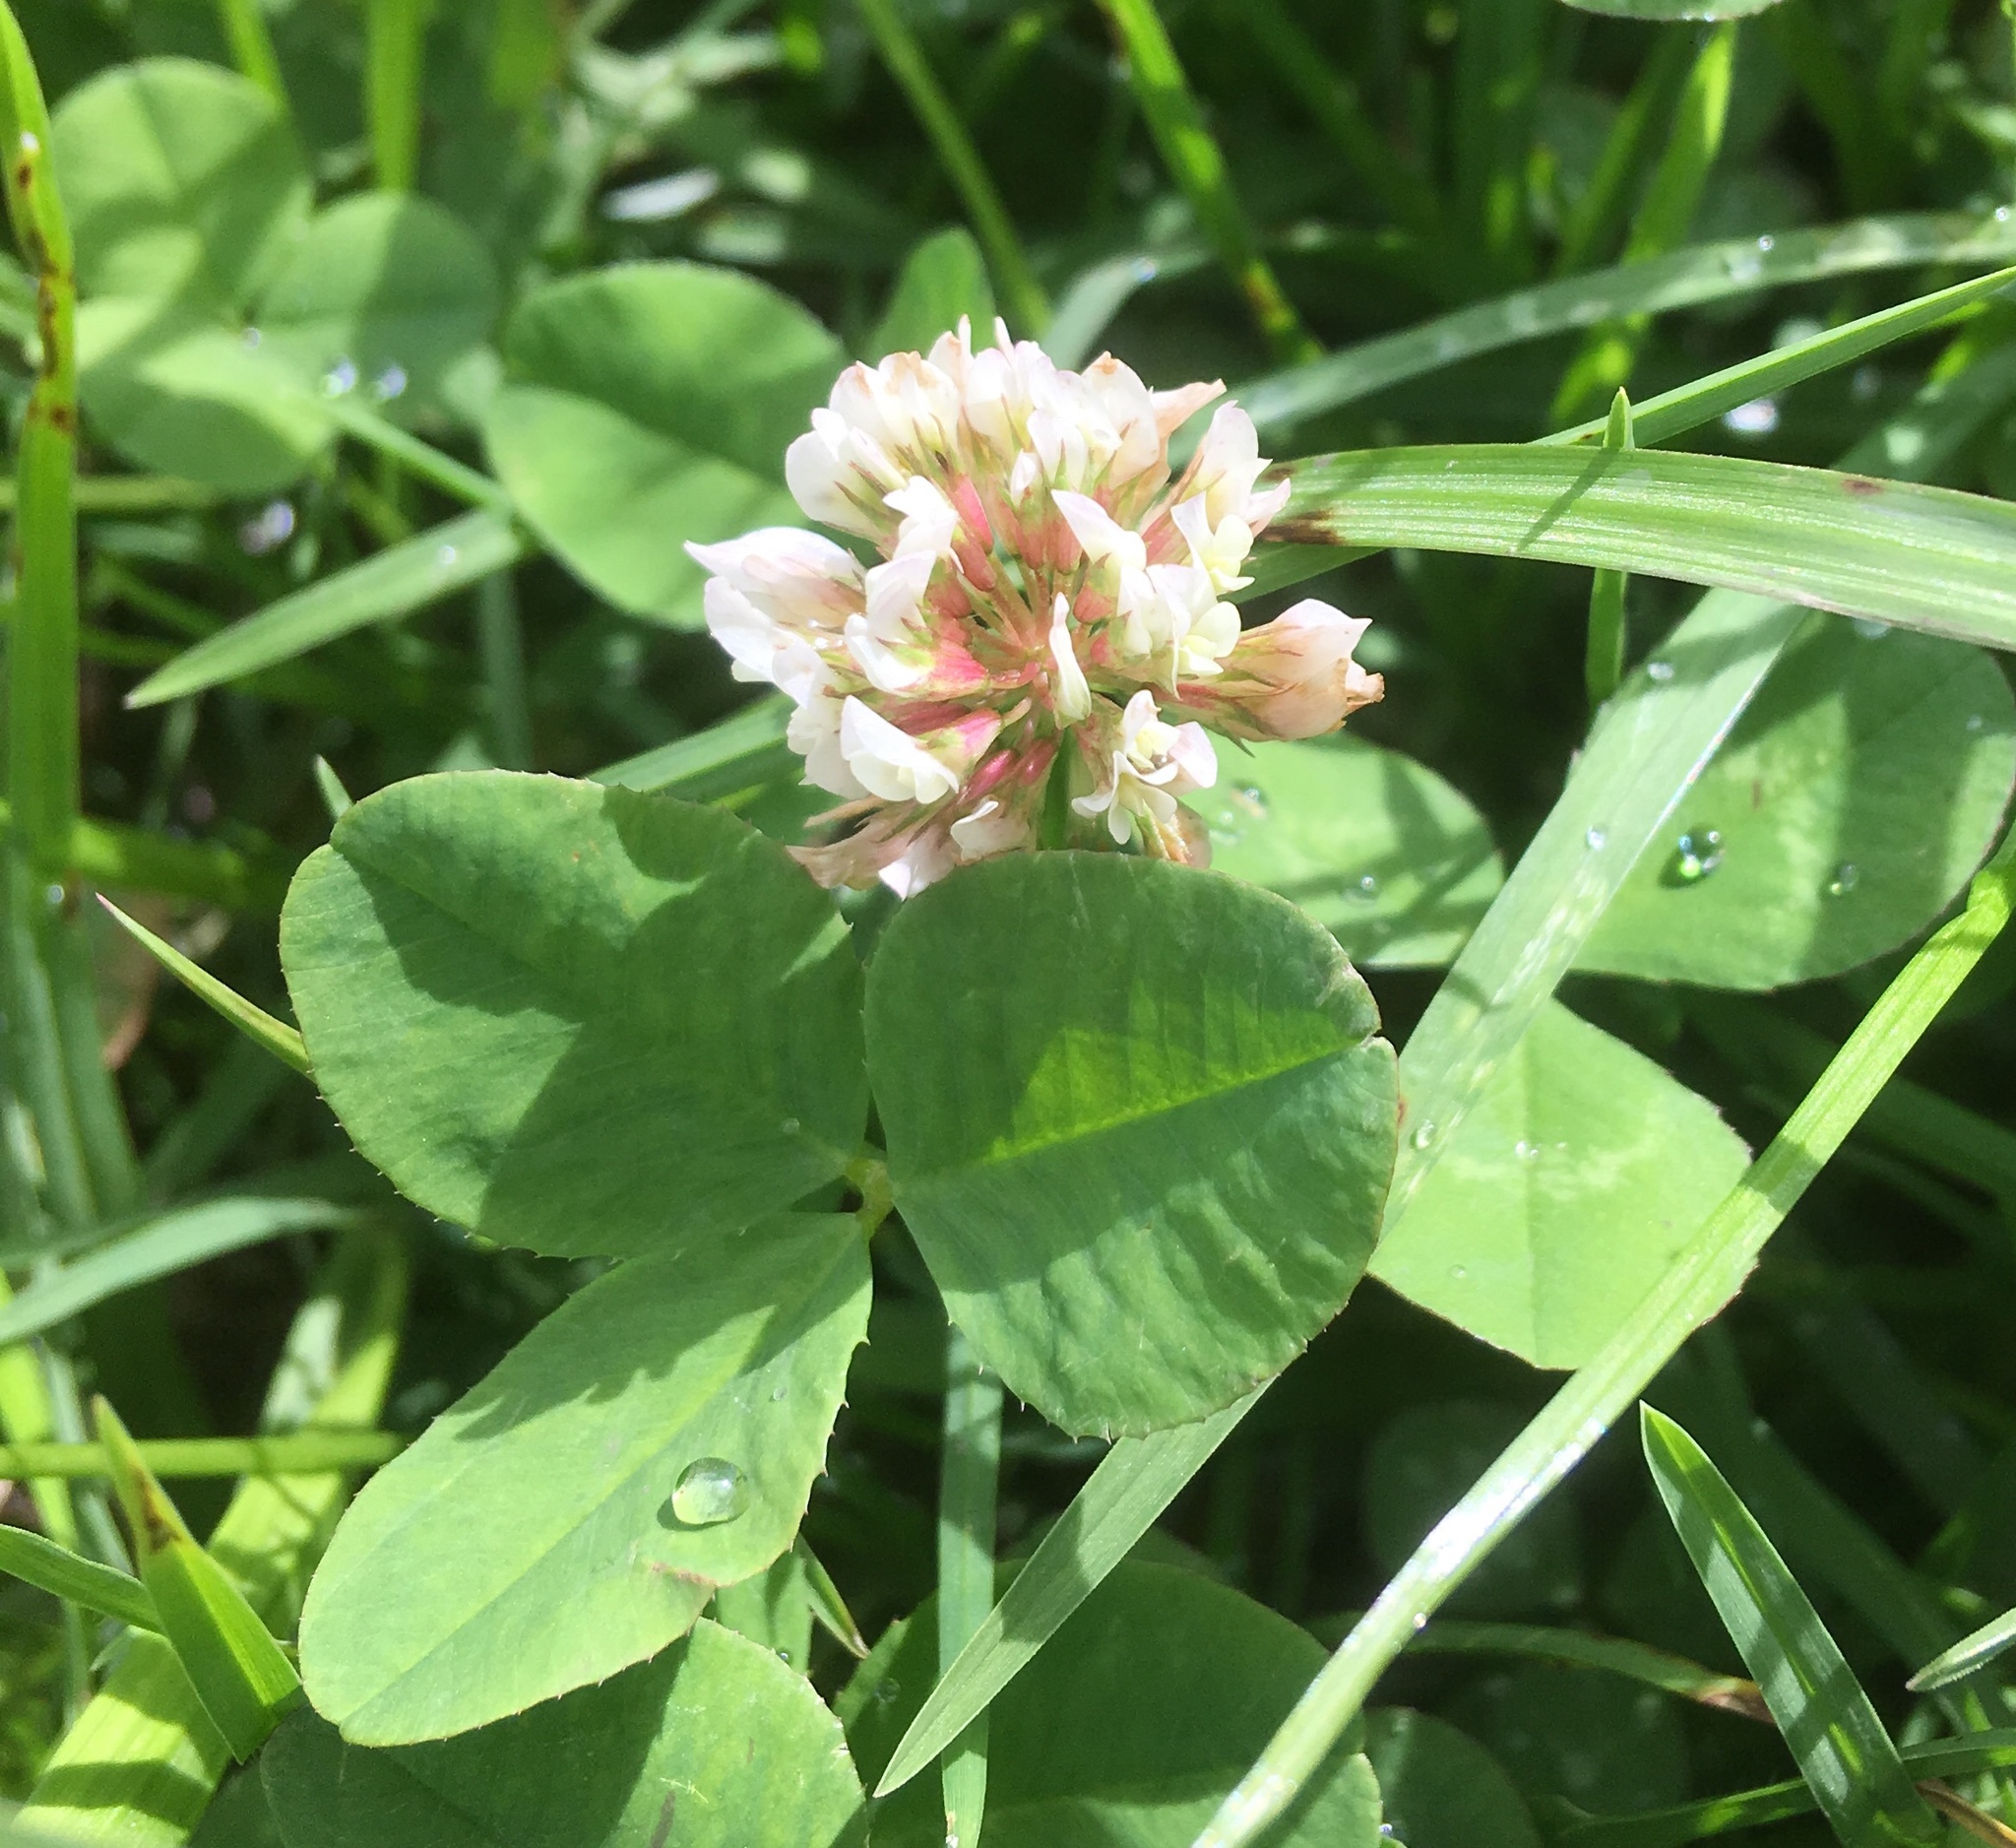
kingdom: Plantae
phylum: Tracheophyta
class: Magnoliopsida
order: Fabales
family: Fabaceae
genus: Trifolium
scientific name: Trifolium repens
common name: White clover
